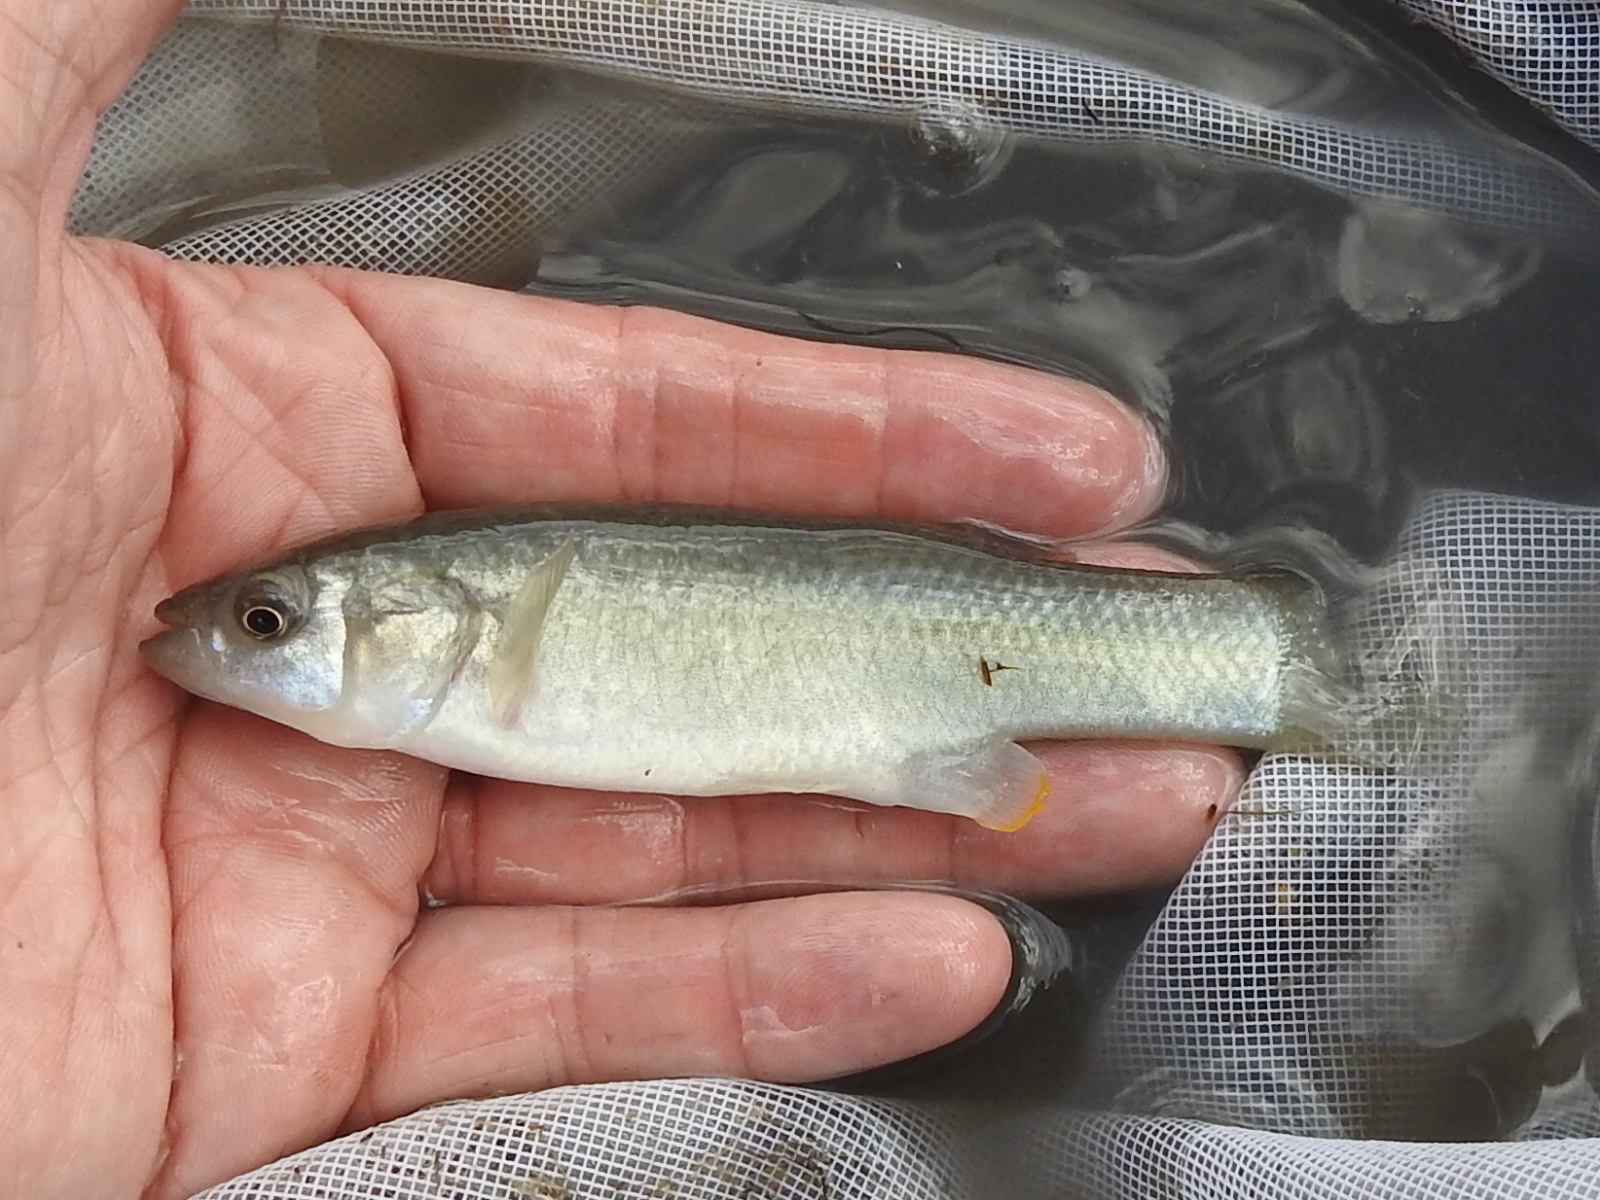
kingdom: Animalia
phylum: Chordata
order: Cyprinodontiformes
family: Fundulidae
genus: Fundulus
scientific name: Fundulus grandis
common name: Gulf killifish
